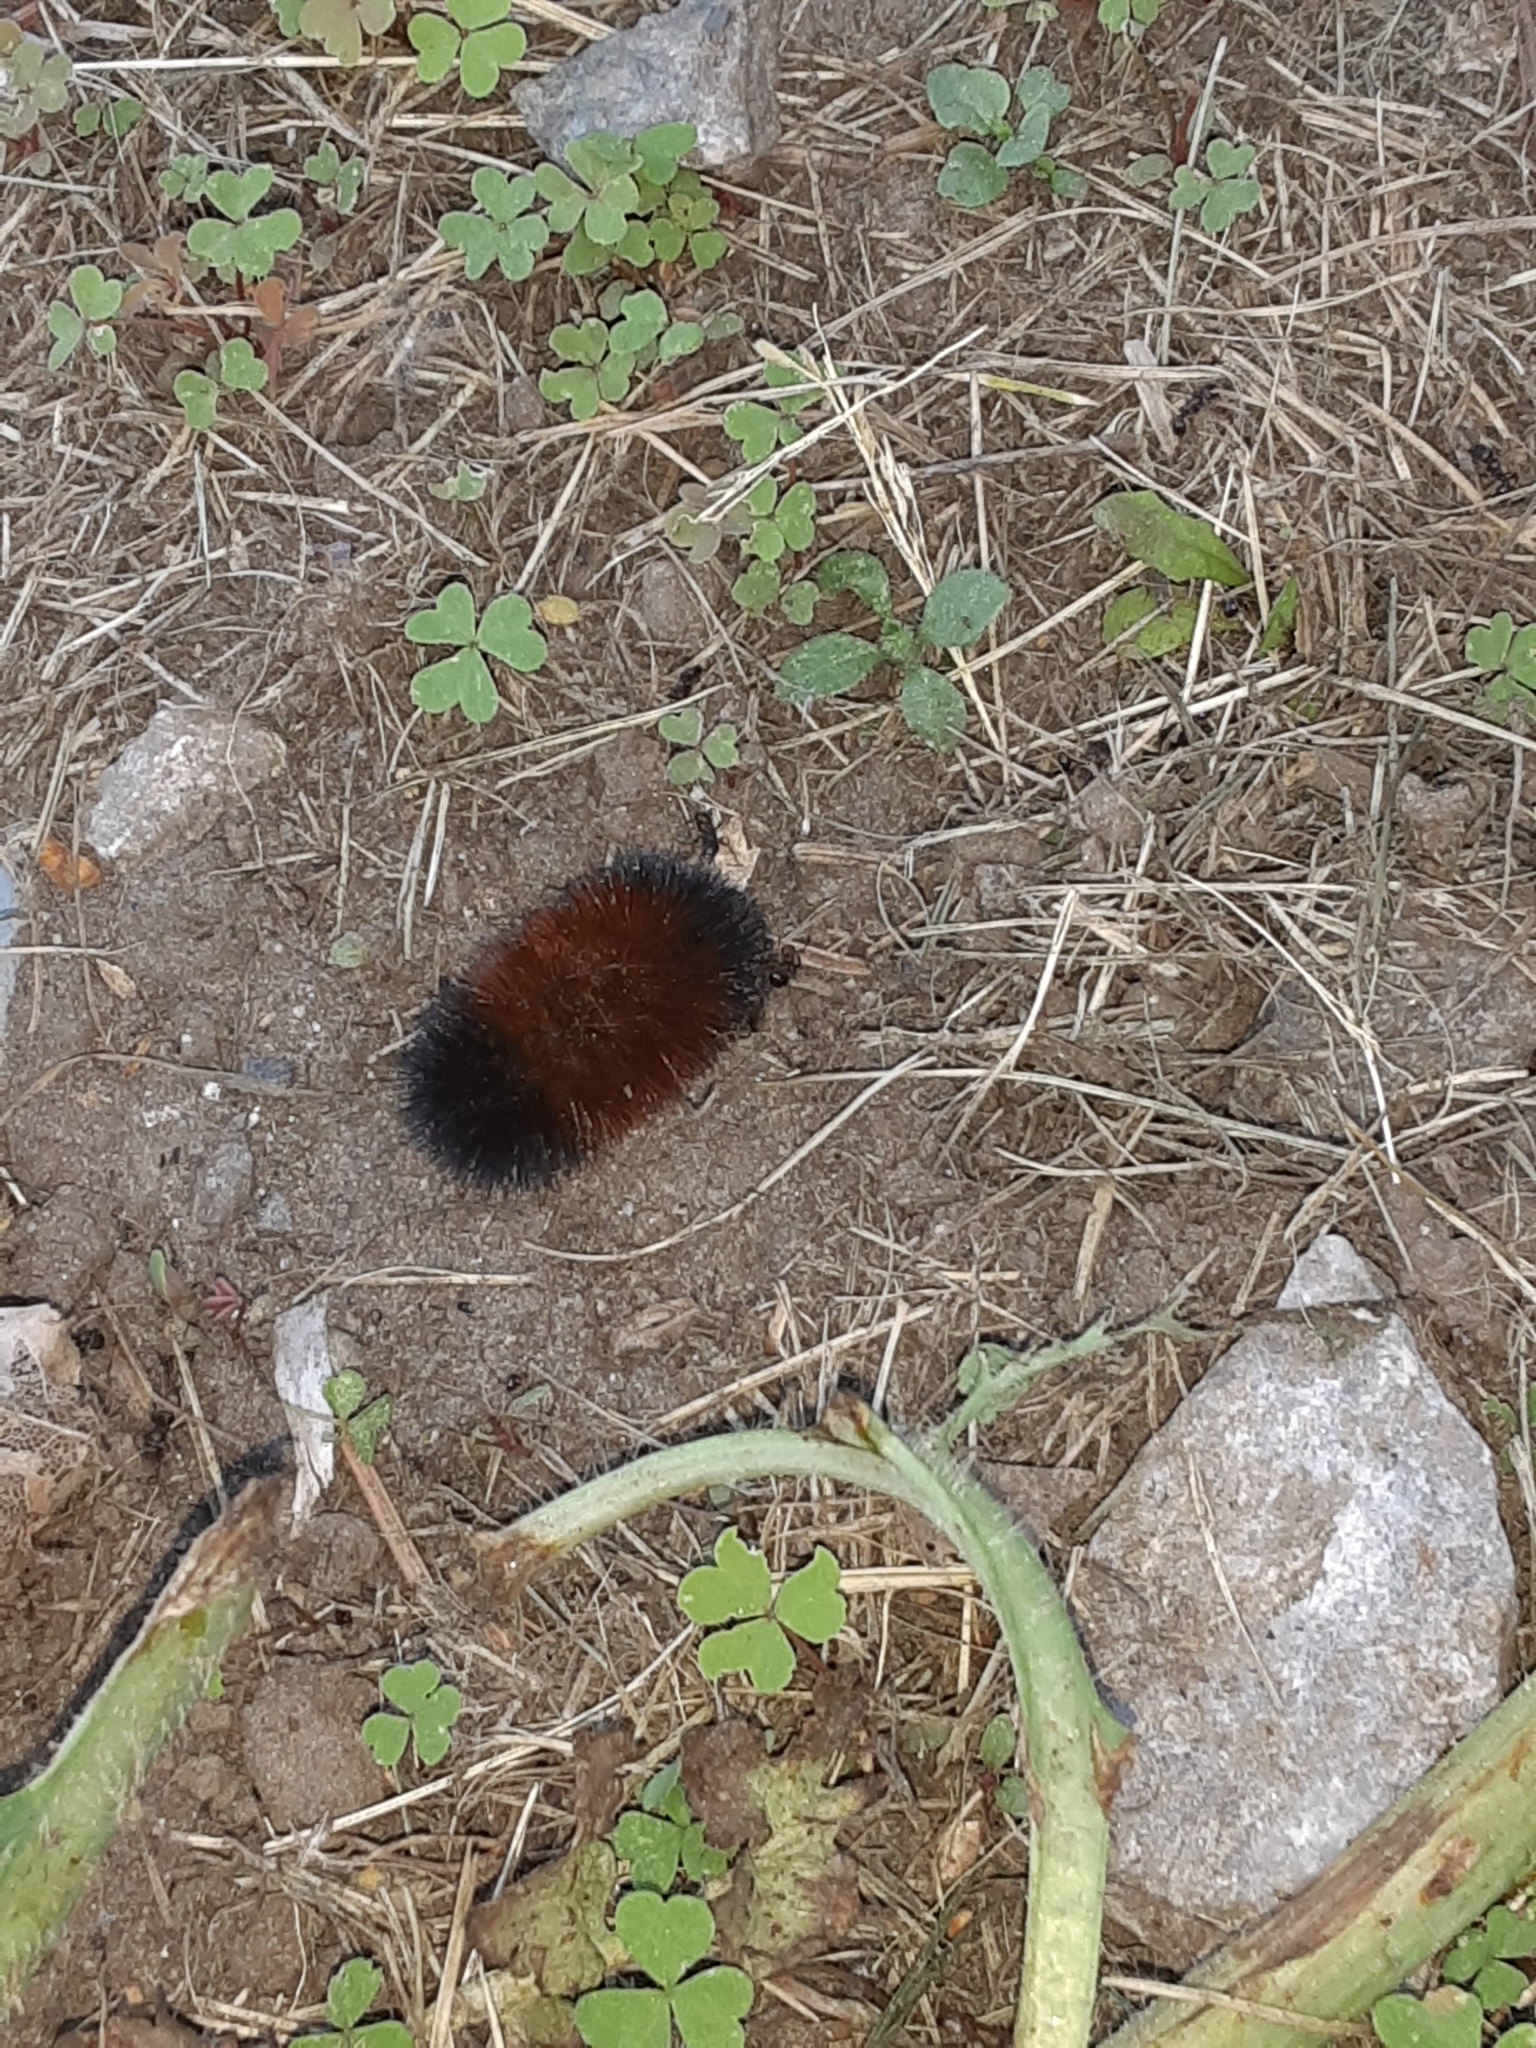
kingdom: Animalia
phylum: Arthropoda
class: Insecta
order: Lepidoptera
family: Erebidae
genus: Pyrrharctia
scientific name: Pyrrharctia isabella
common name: Isabella tiger moth
